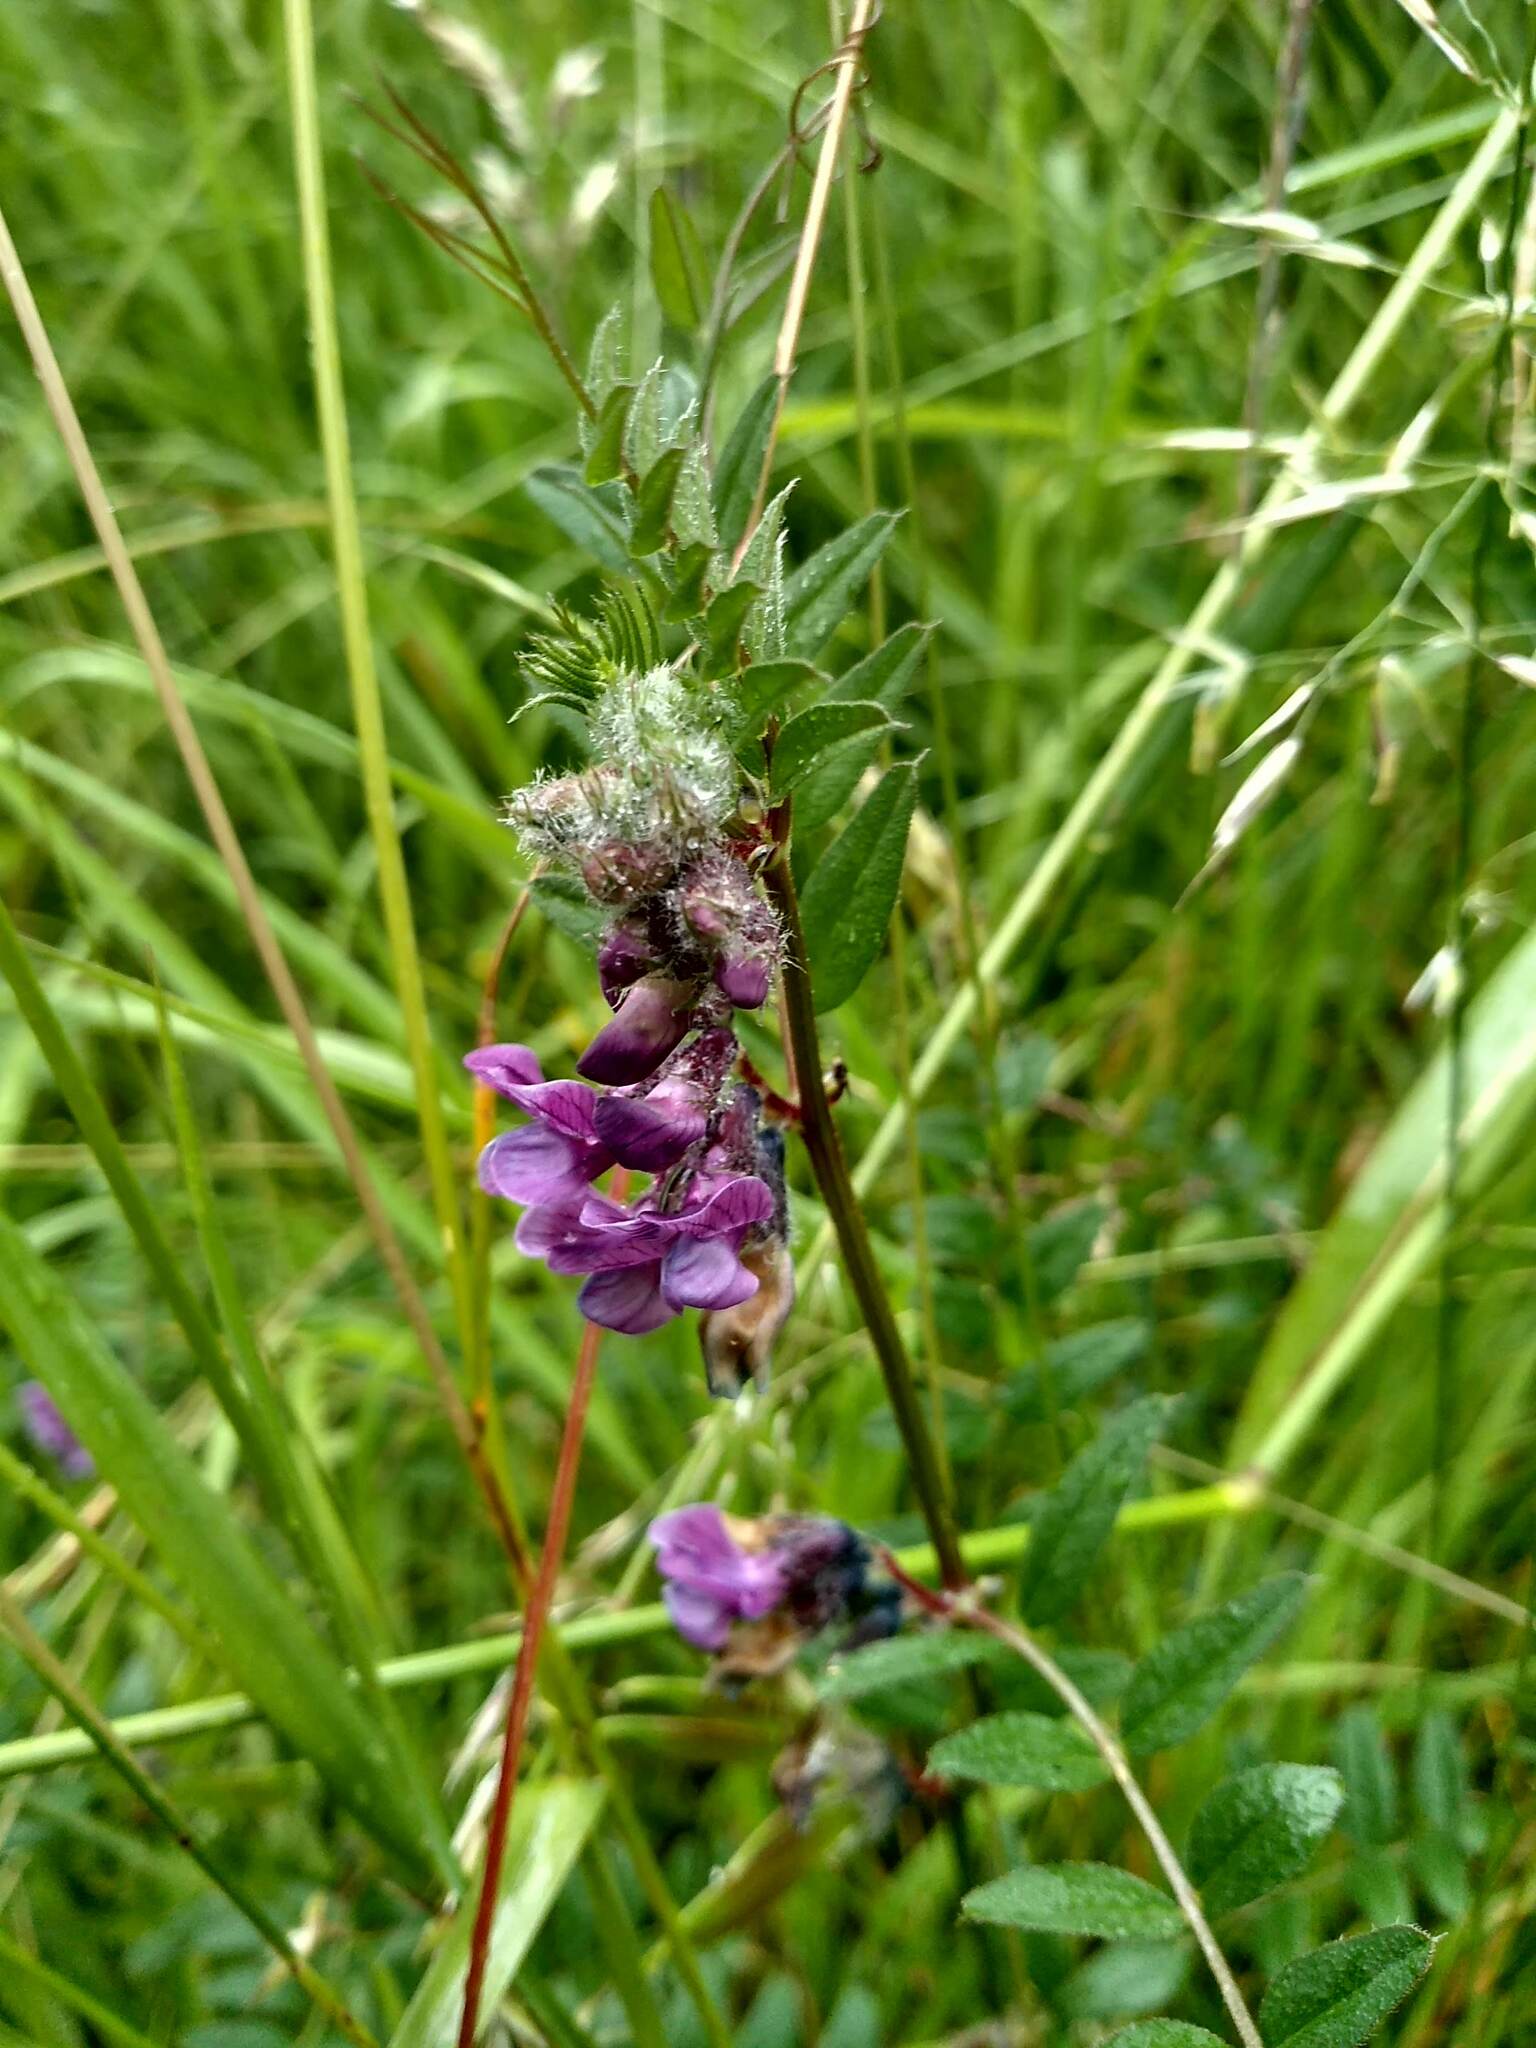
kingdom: Plantae
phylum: Tracheophyta
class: Magnoliopsida
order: Fabales
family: Fabaceae
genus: Vicia
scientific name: Vicia sepium
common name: Bush vetch
